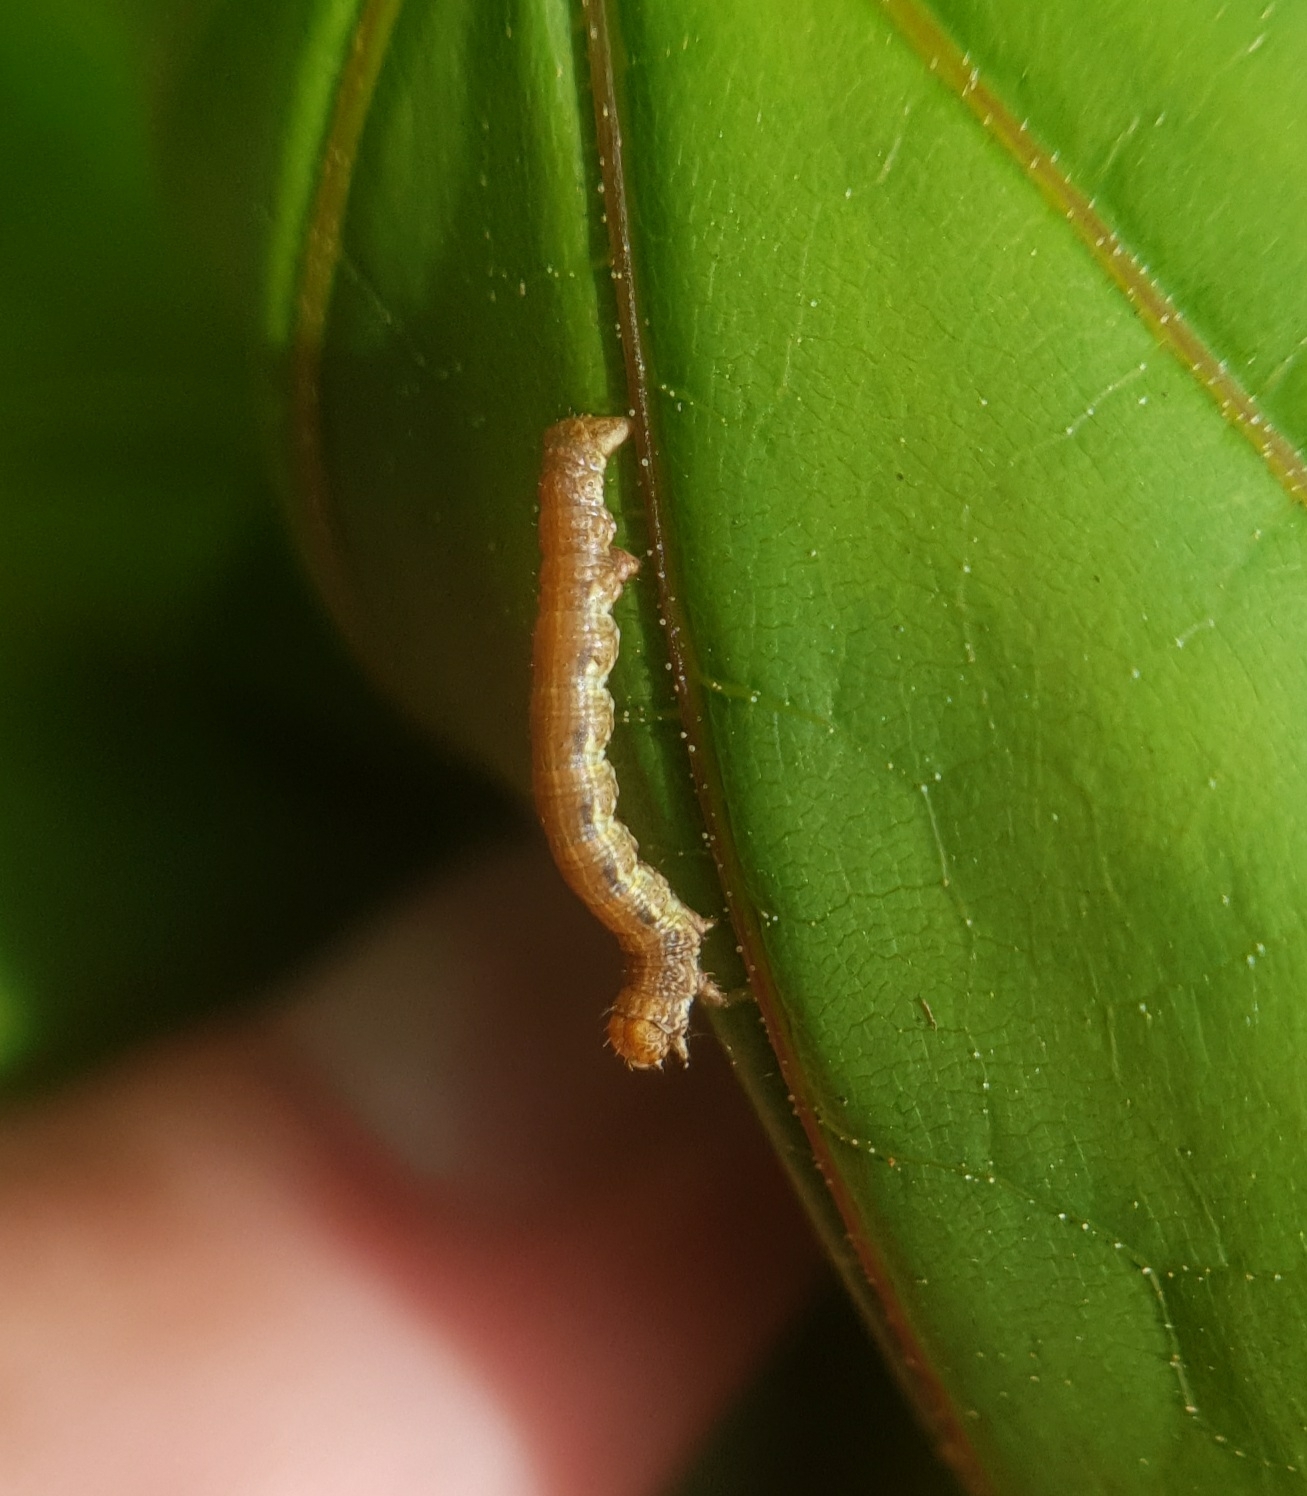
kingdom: Animalia
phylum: Arthropoda
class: Insecta
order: Lepidoptera
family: Geometridae
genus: Erannis
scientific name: Erannis defoliaria
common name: Mottled umber
